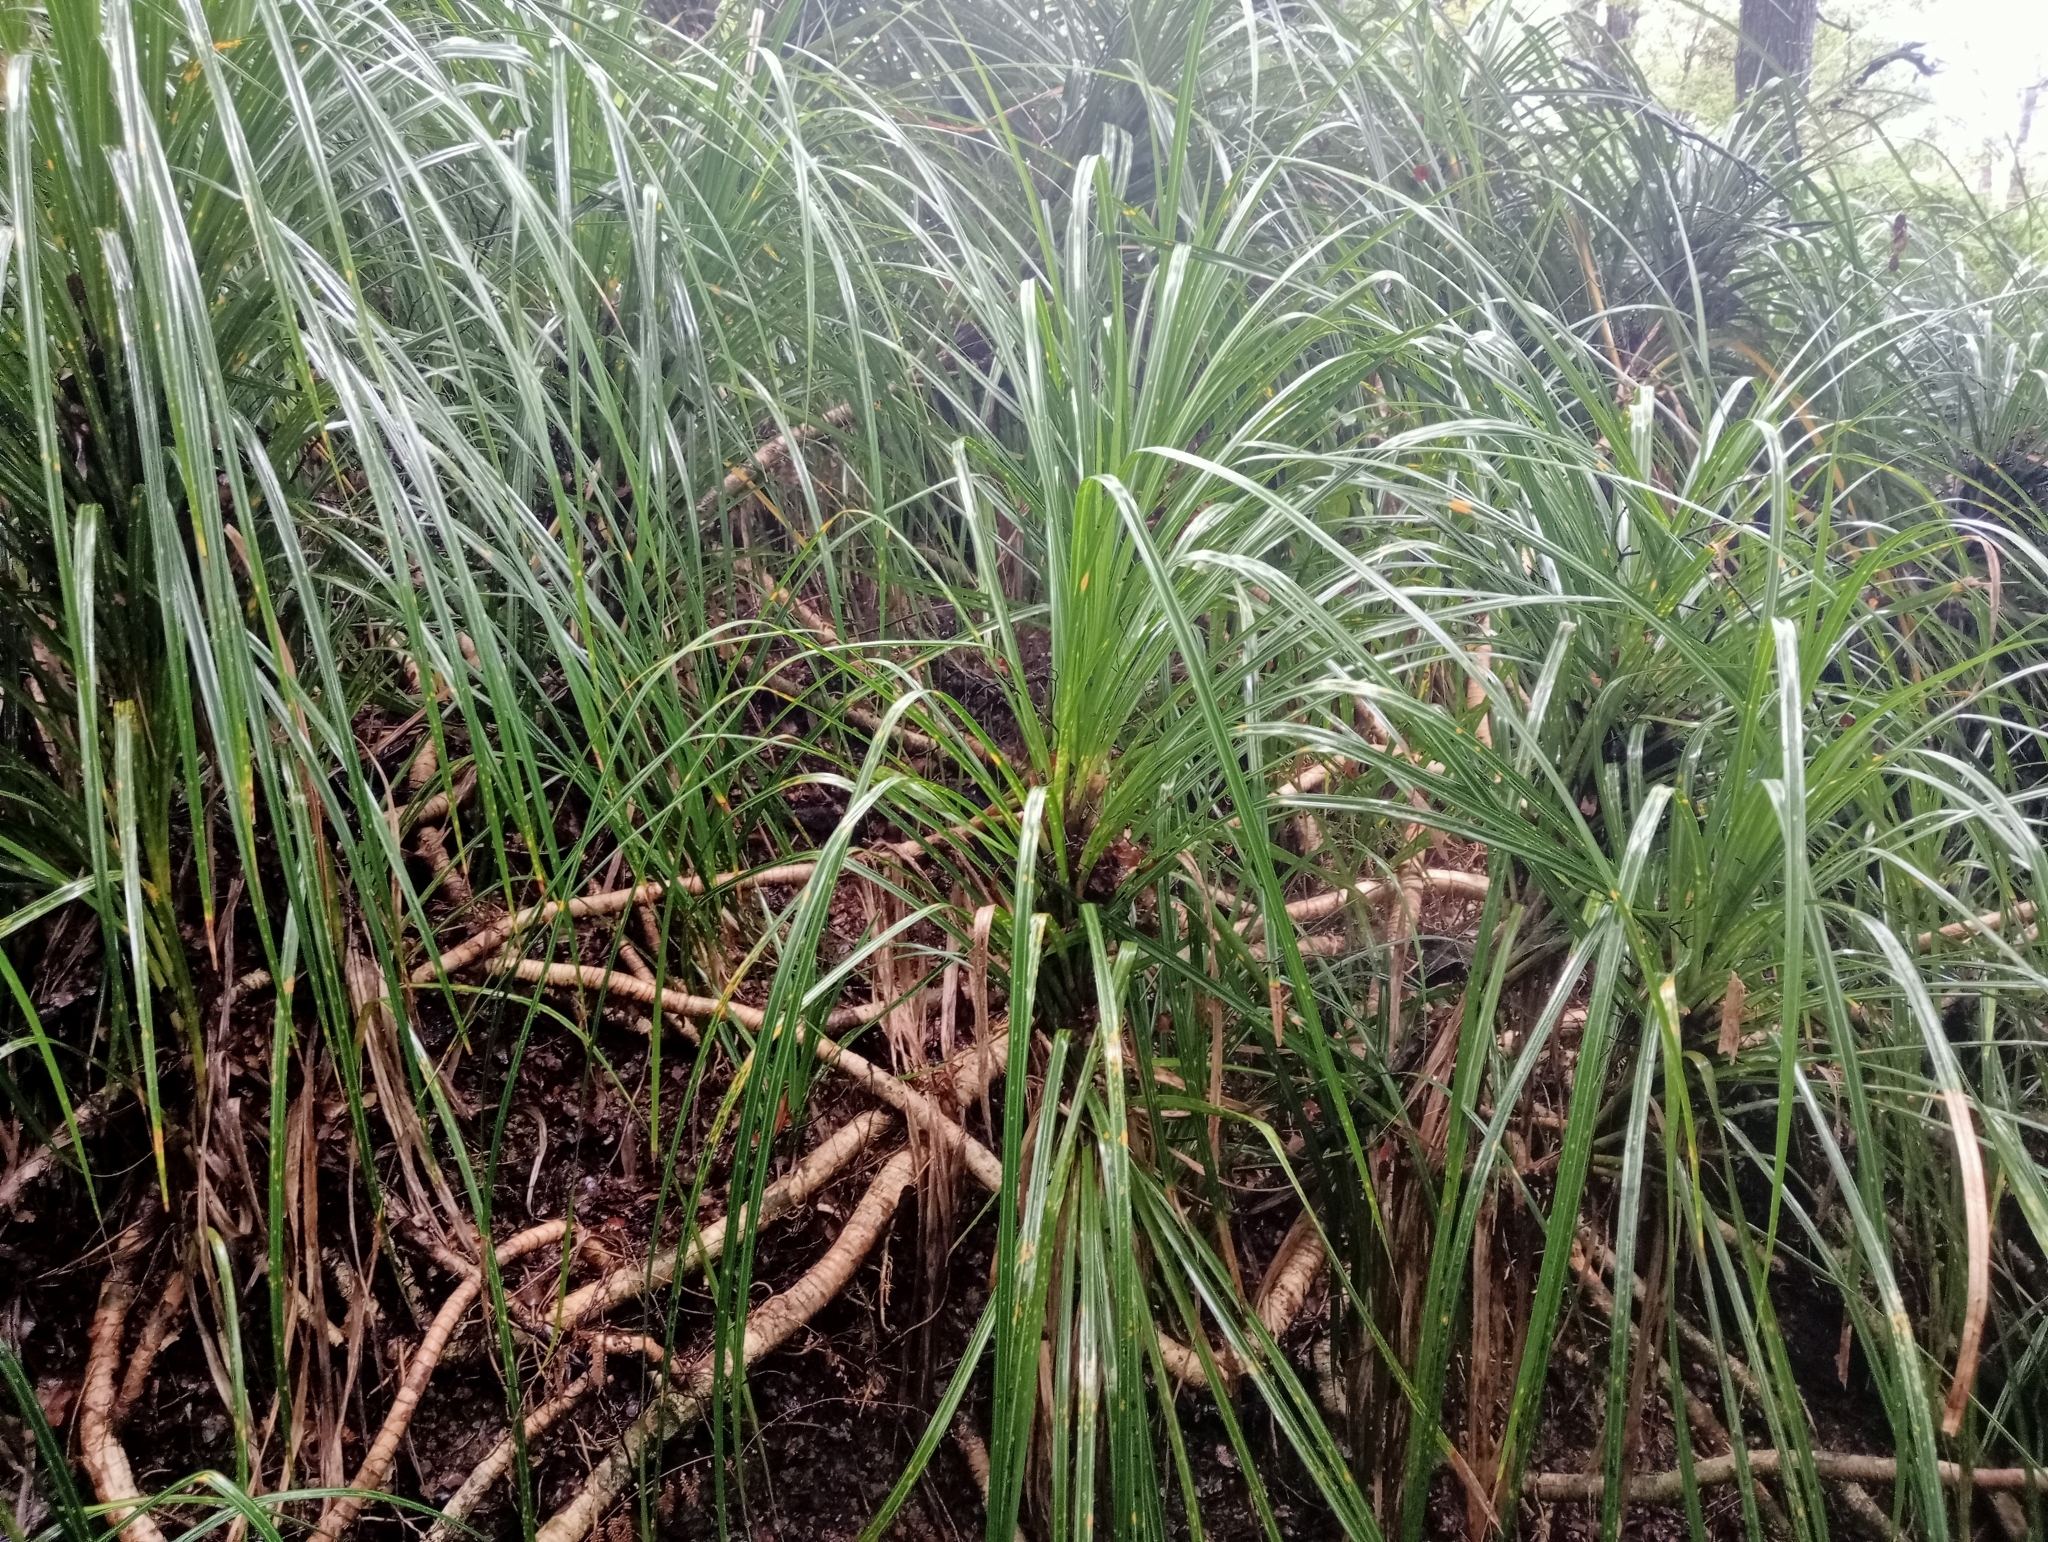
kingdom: Plantae
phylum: Tracheophyta
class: Liliopsida
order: Pandanales
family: Pandanaceae
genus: Freycinetia
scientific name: Freycinetia banksii
